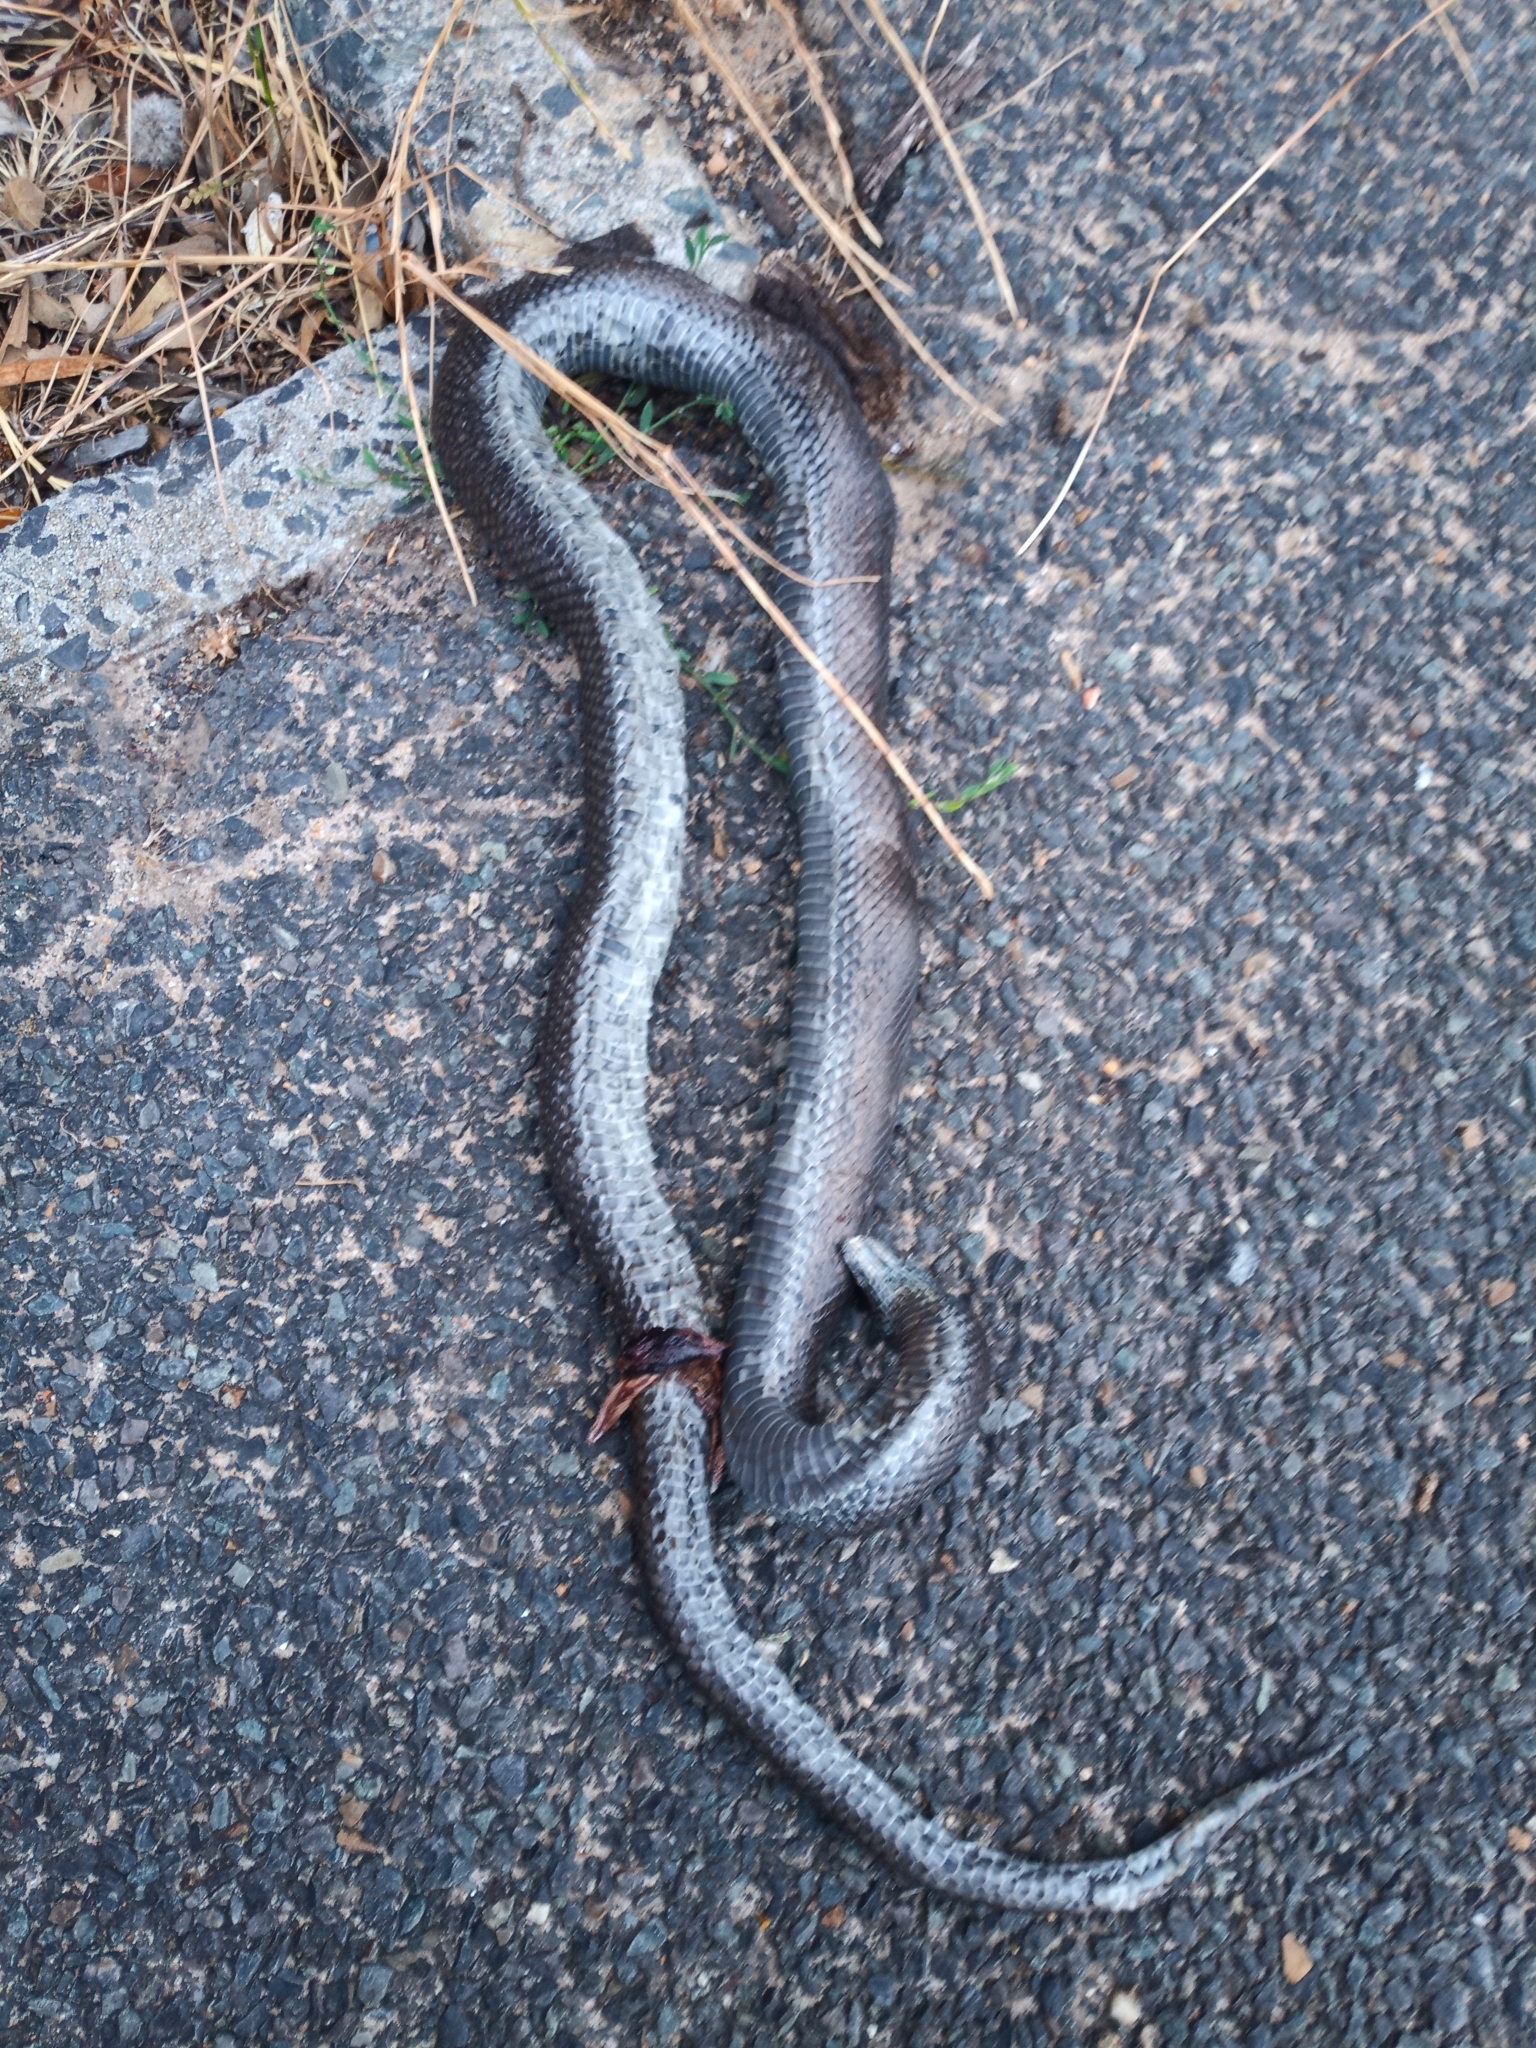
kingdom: Animalia
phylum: Chordata
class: Squamata
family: Pseudaspididae
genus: Pseudaspis
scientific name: Pseudaspis cana
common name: Mole snake
